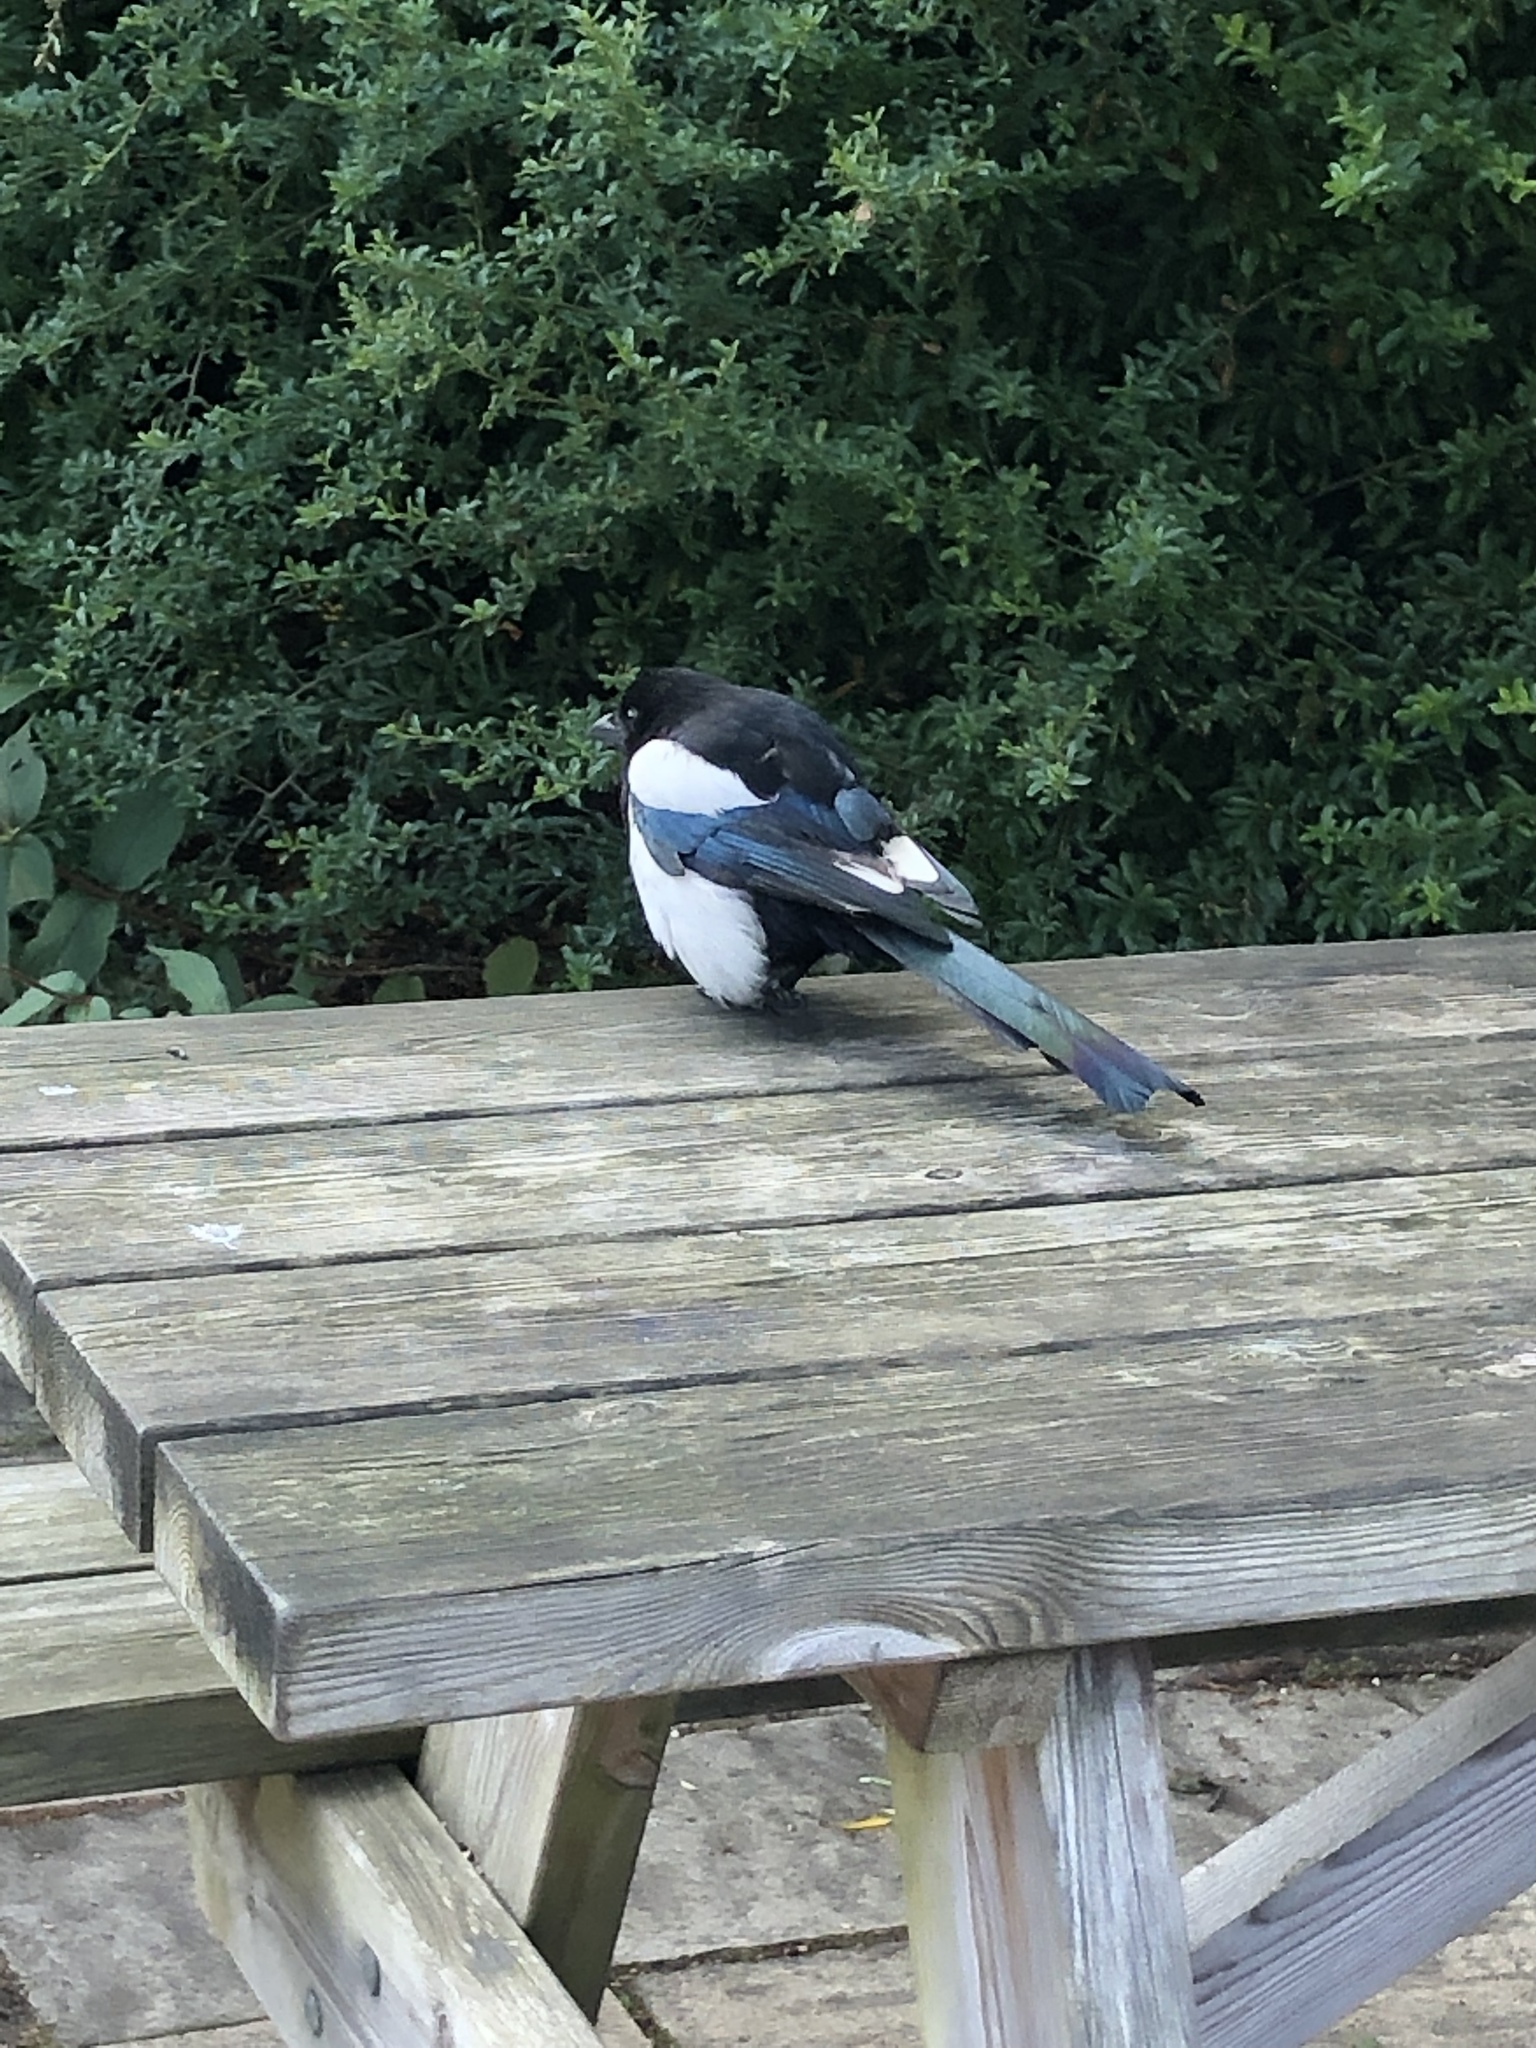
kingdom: Animalia
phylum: Chordata
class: Aves
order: Passeriformes
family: Corvidae
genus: Pica
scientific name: Pica pica
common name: Eurasian magpie
